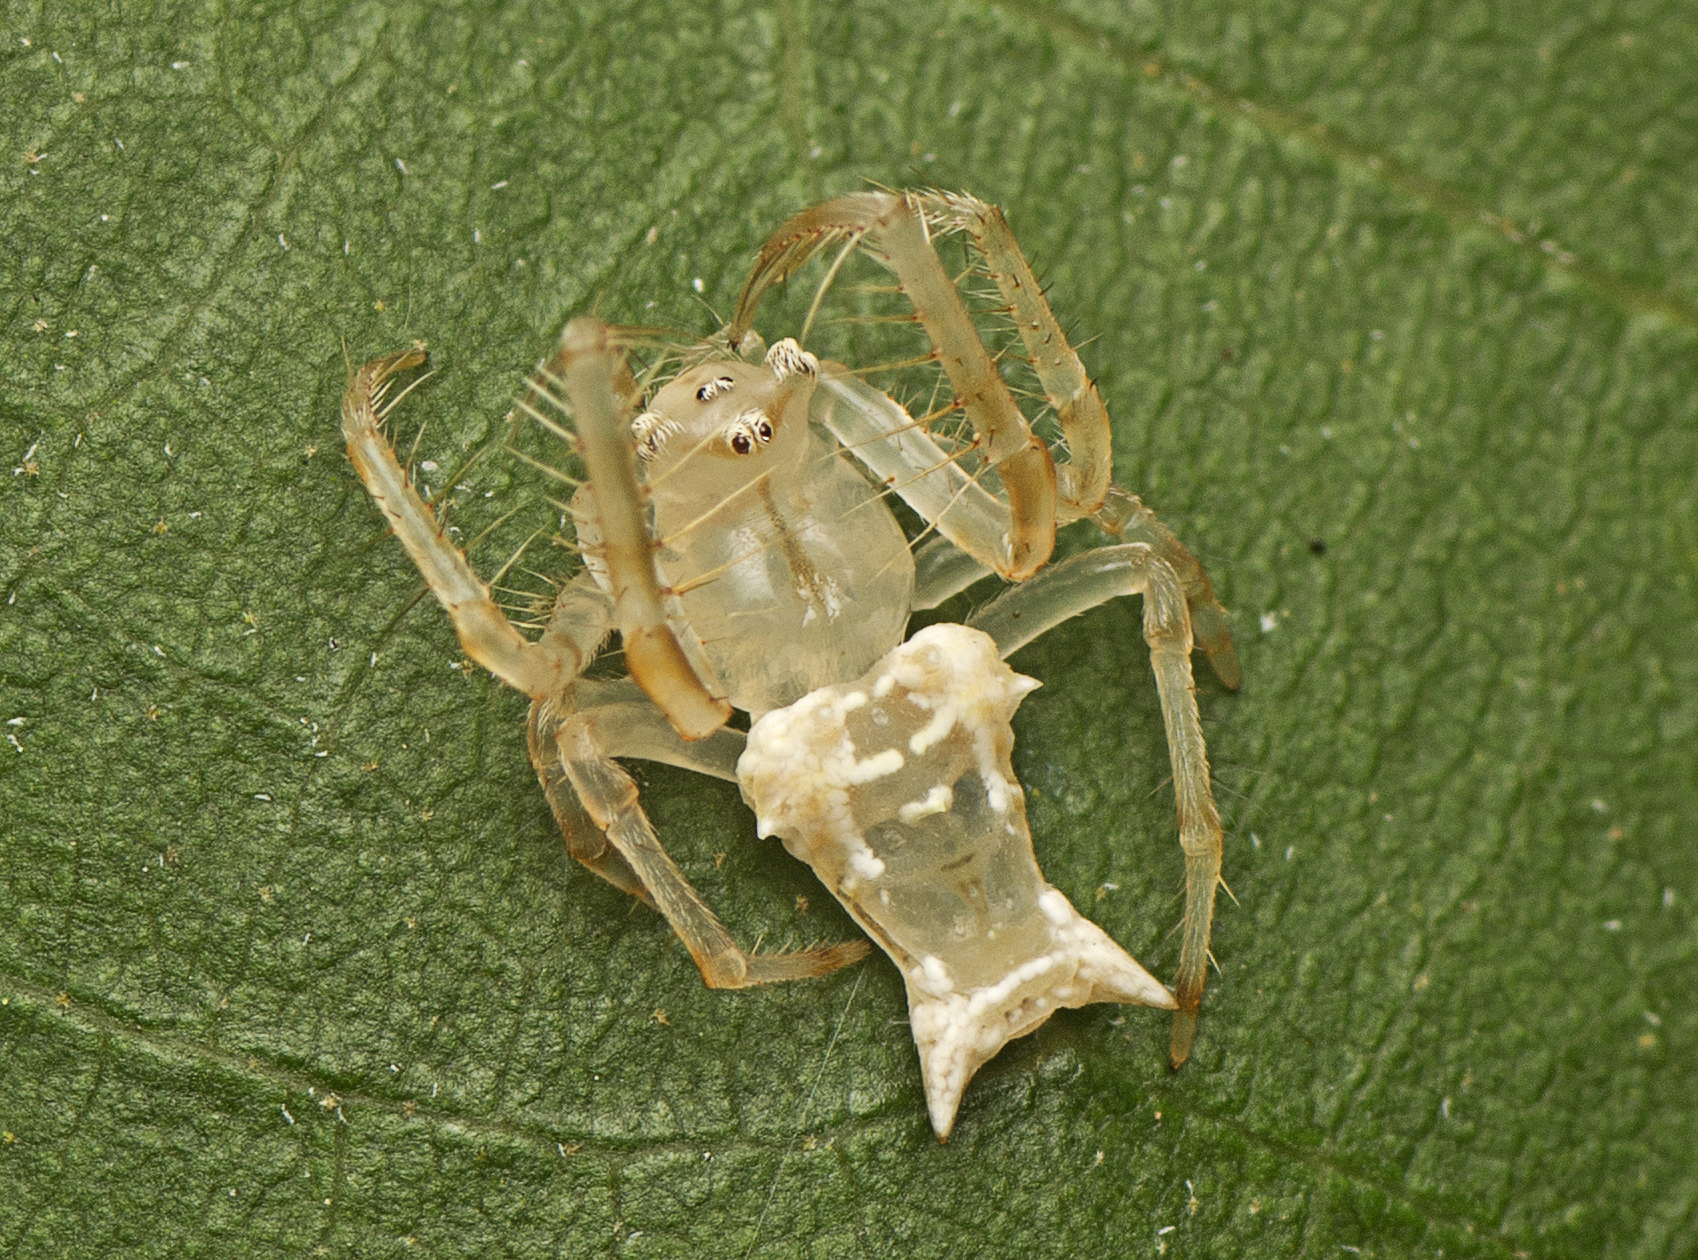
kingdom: Animalia
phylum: Arthropoda
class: Arachnida
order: Araneae
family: Arkyidae
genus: Arkys
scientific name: Arkys furcatus
